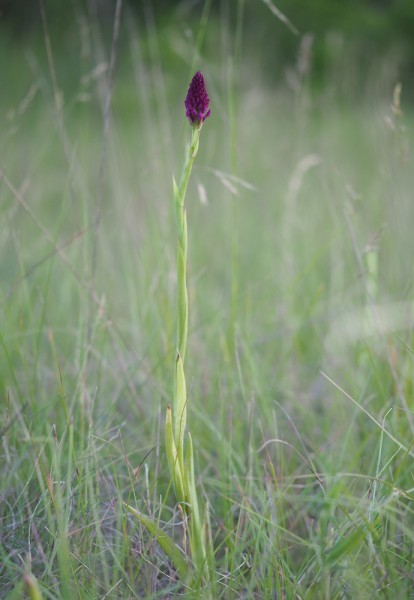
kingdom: Plantae
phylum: Tracheophyta
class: Liliopsida
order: Asparagales
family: Orchidaceae
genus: Anacamptis
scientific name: Anacamptis pyramidalis
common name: Pyramidal orchid
